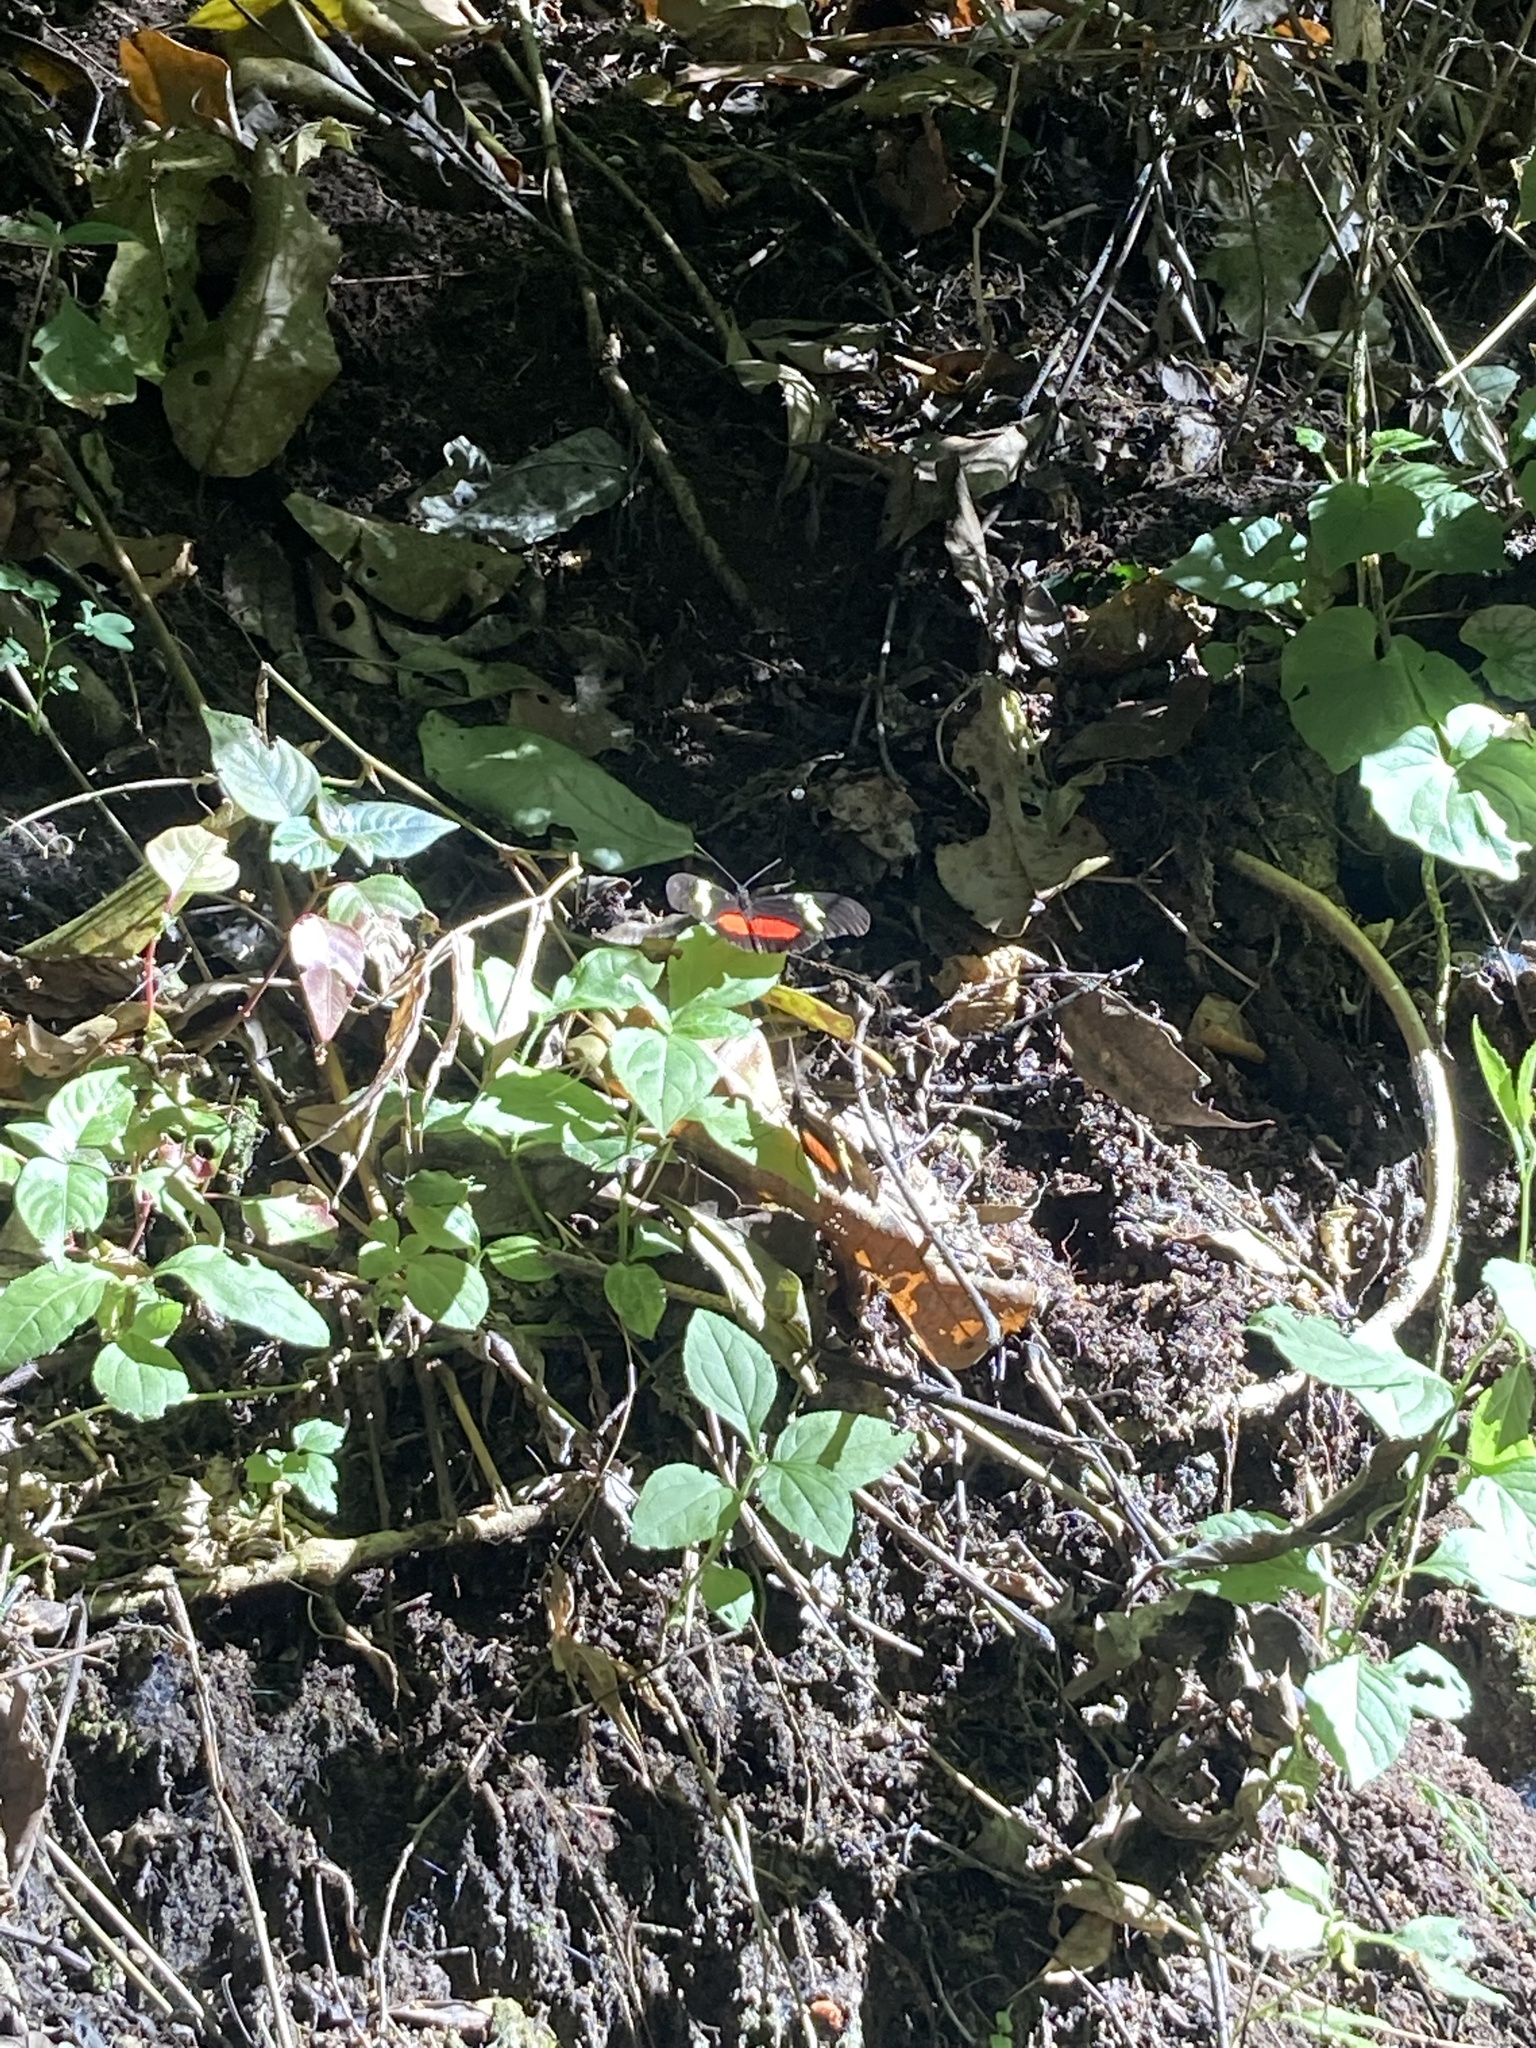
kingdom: Animalia
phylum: Arthropoda
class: Insecta
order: Lepidoptera
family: Nymphalidae
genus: Heliconius
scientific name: Heliconius hortense
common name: Mexican longwing
